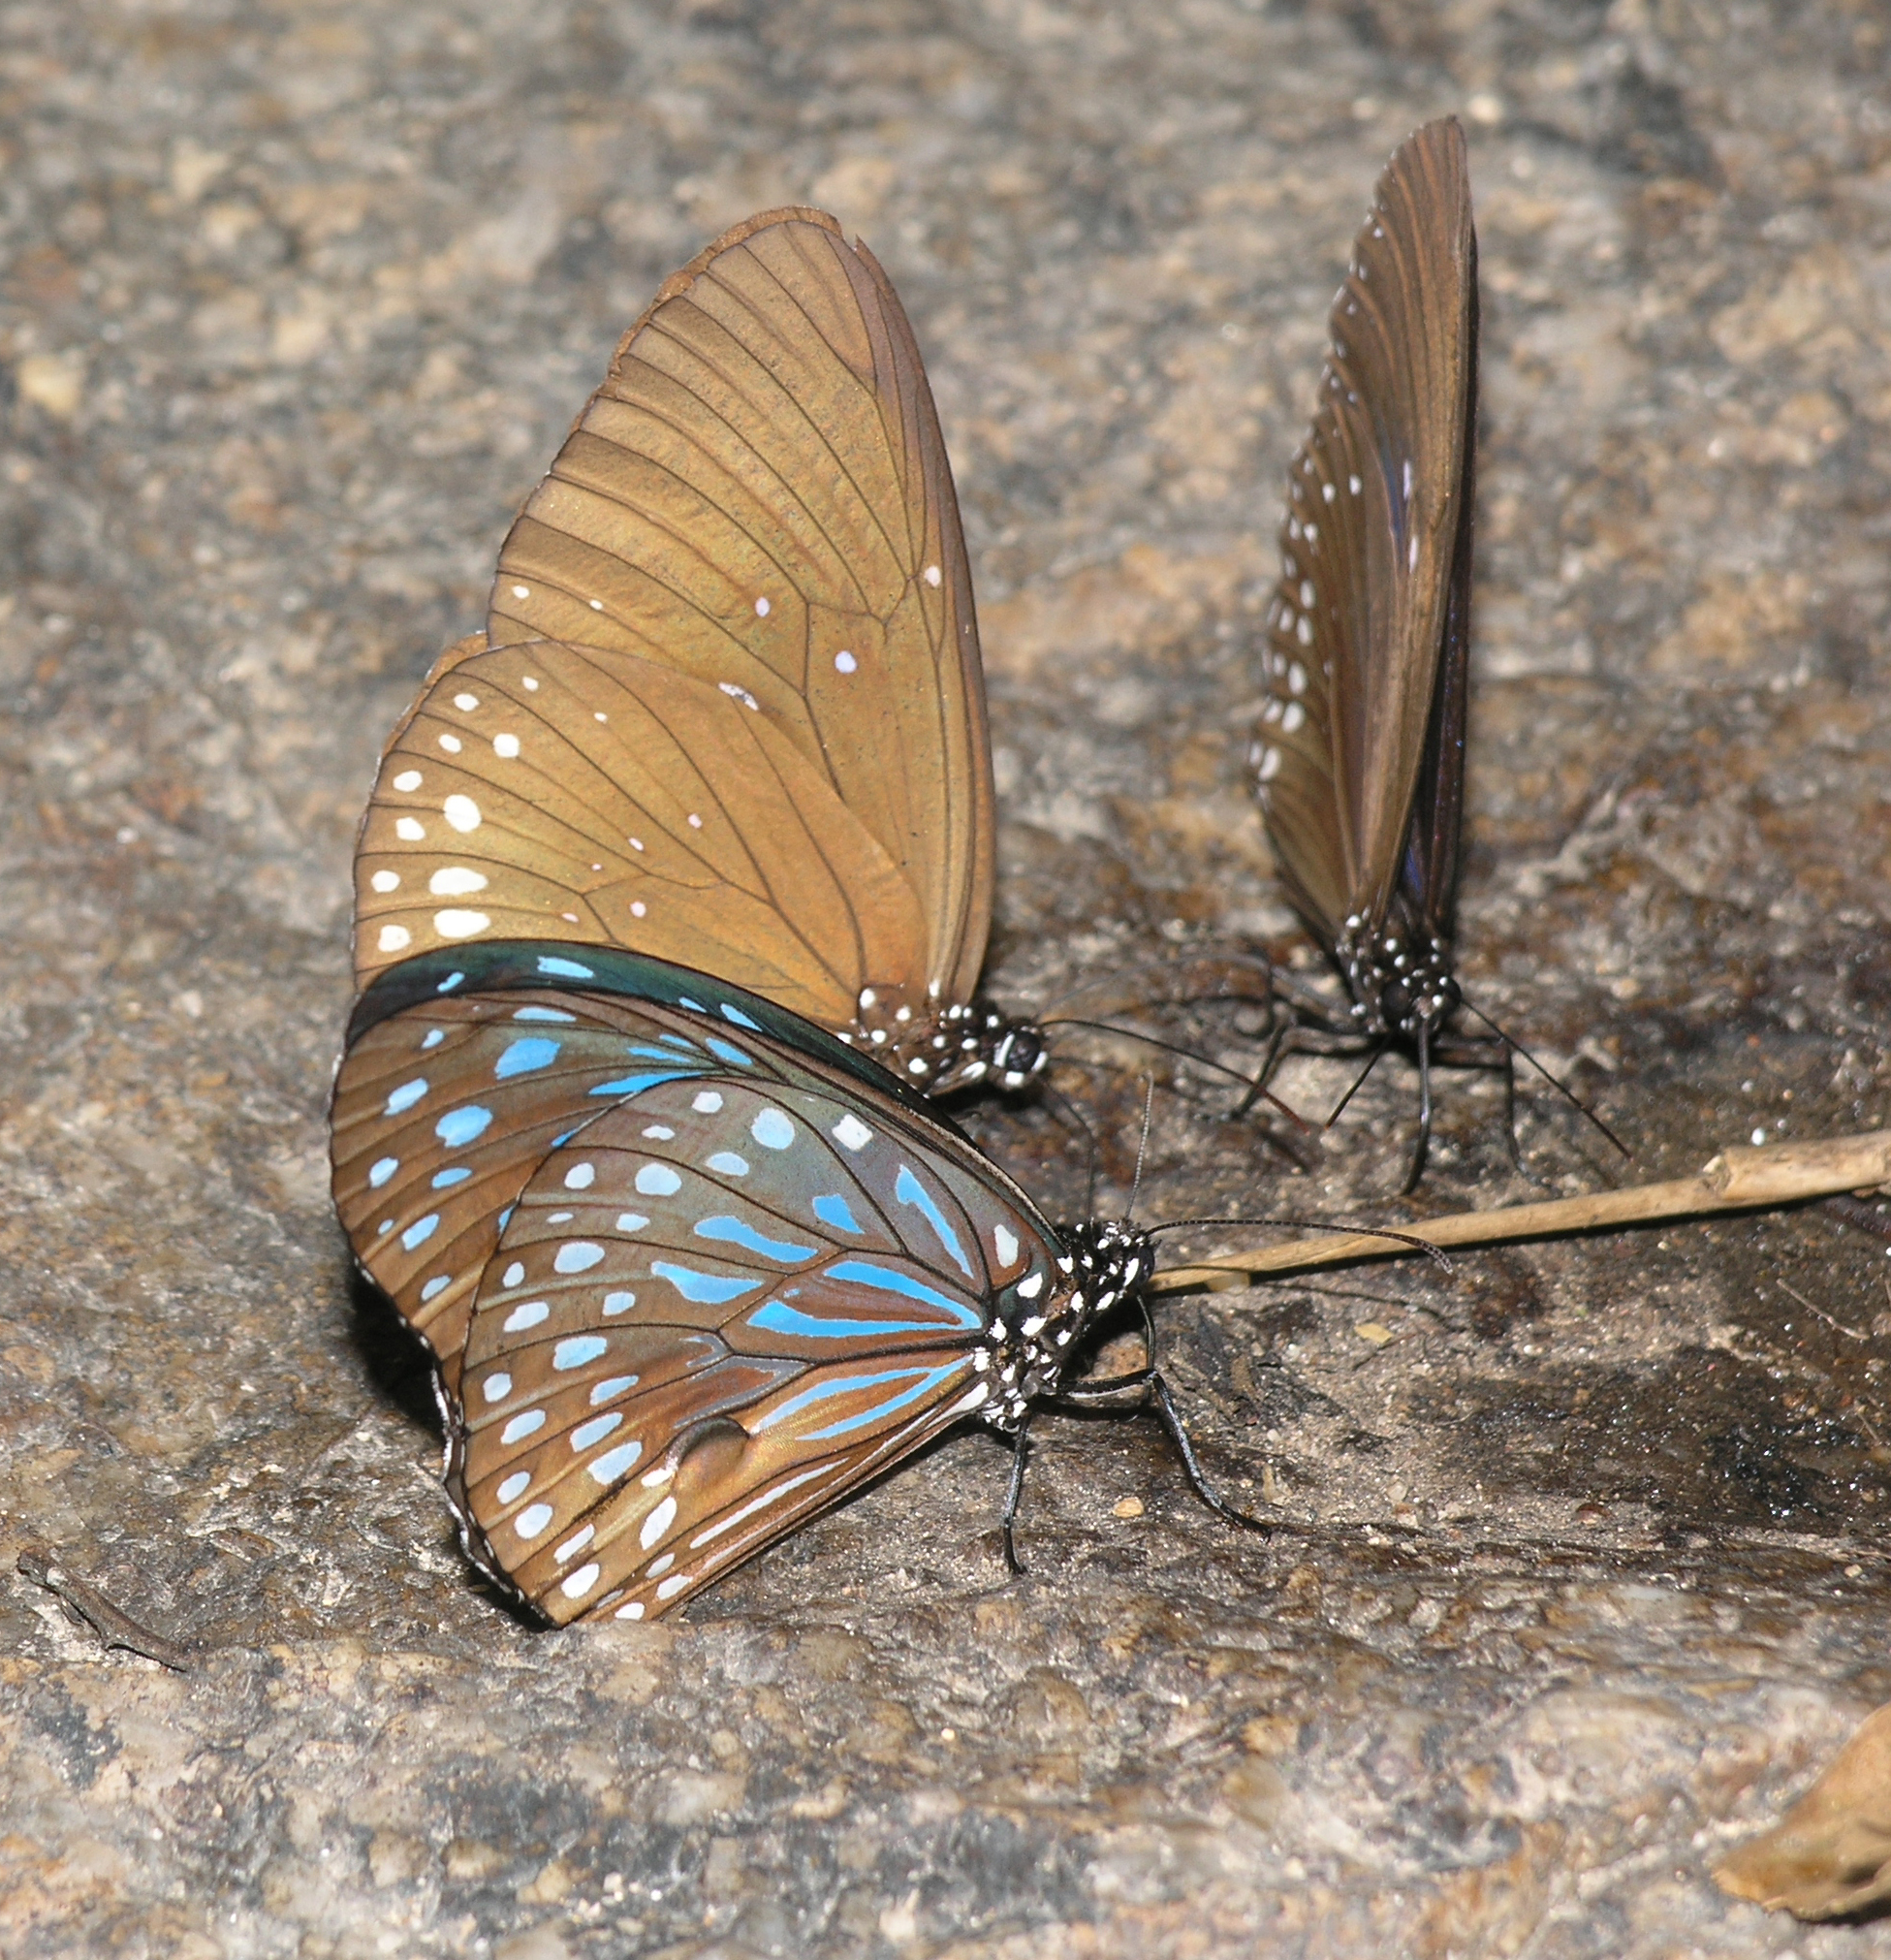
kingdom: Animalia
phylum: Arthropoda
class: Insecta
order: Lepidoptera
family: Nymphalidae
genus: Tirumala
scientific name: Tirumala septentrionis
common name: Dark blue tiger butterfly
